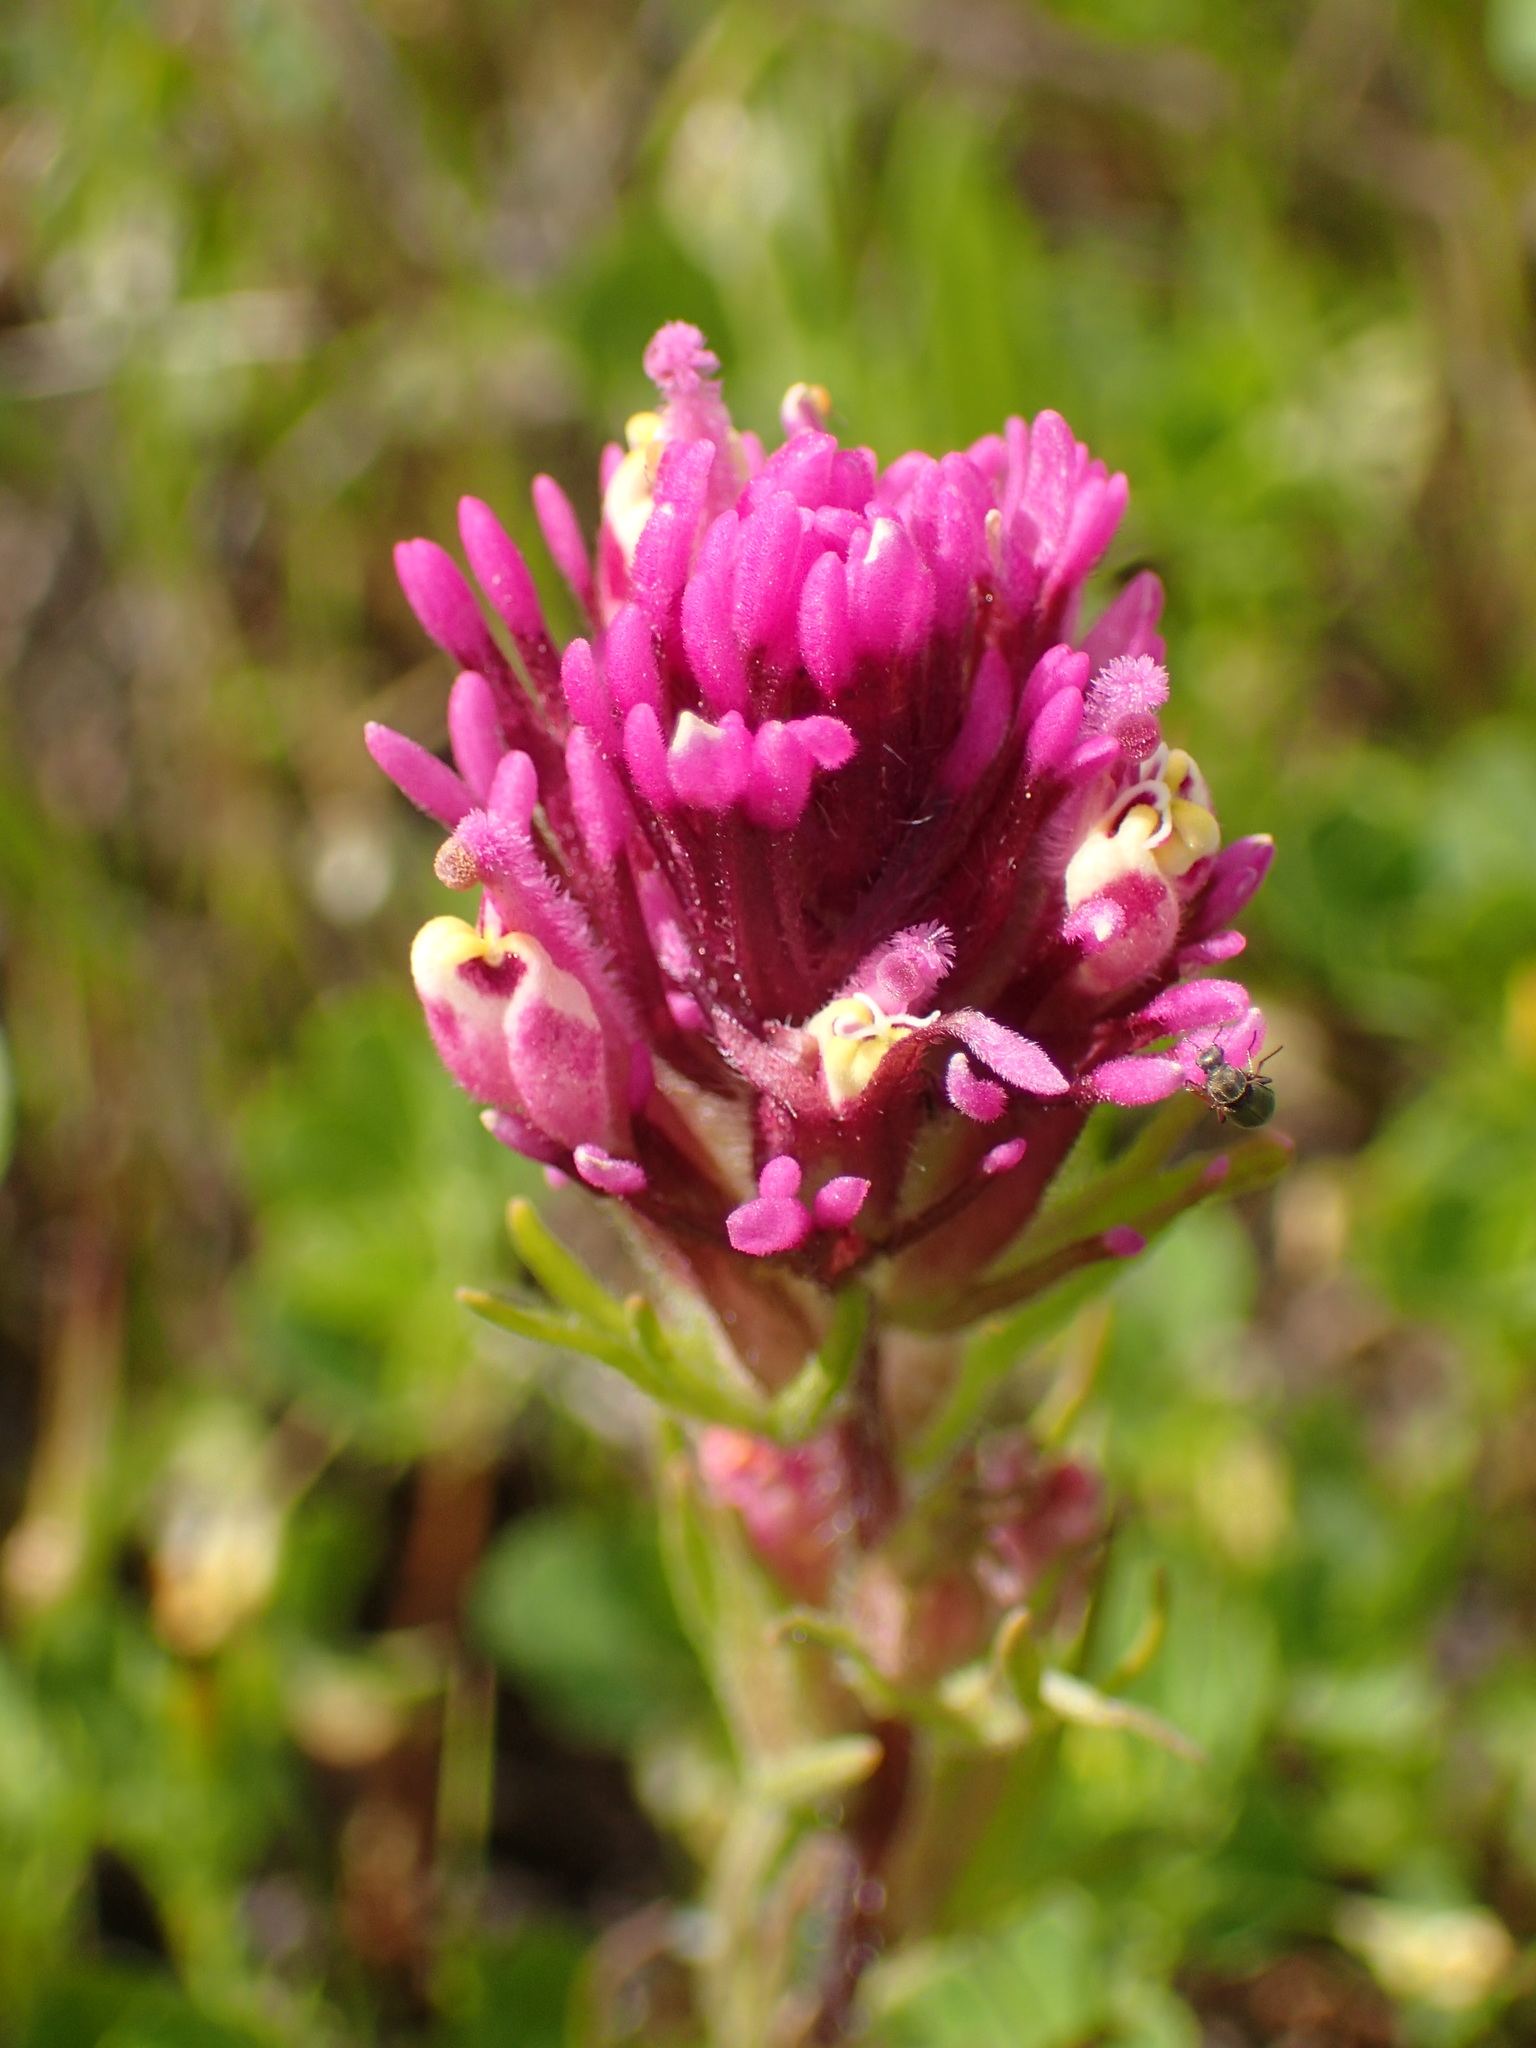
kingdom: Plantae
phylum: Tracheophyta
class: Magnoliopsida
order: Lamiales
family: Orobanchaceae
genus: Castilleja
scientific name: Castilleja exserta
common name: Purple owl-clover
